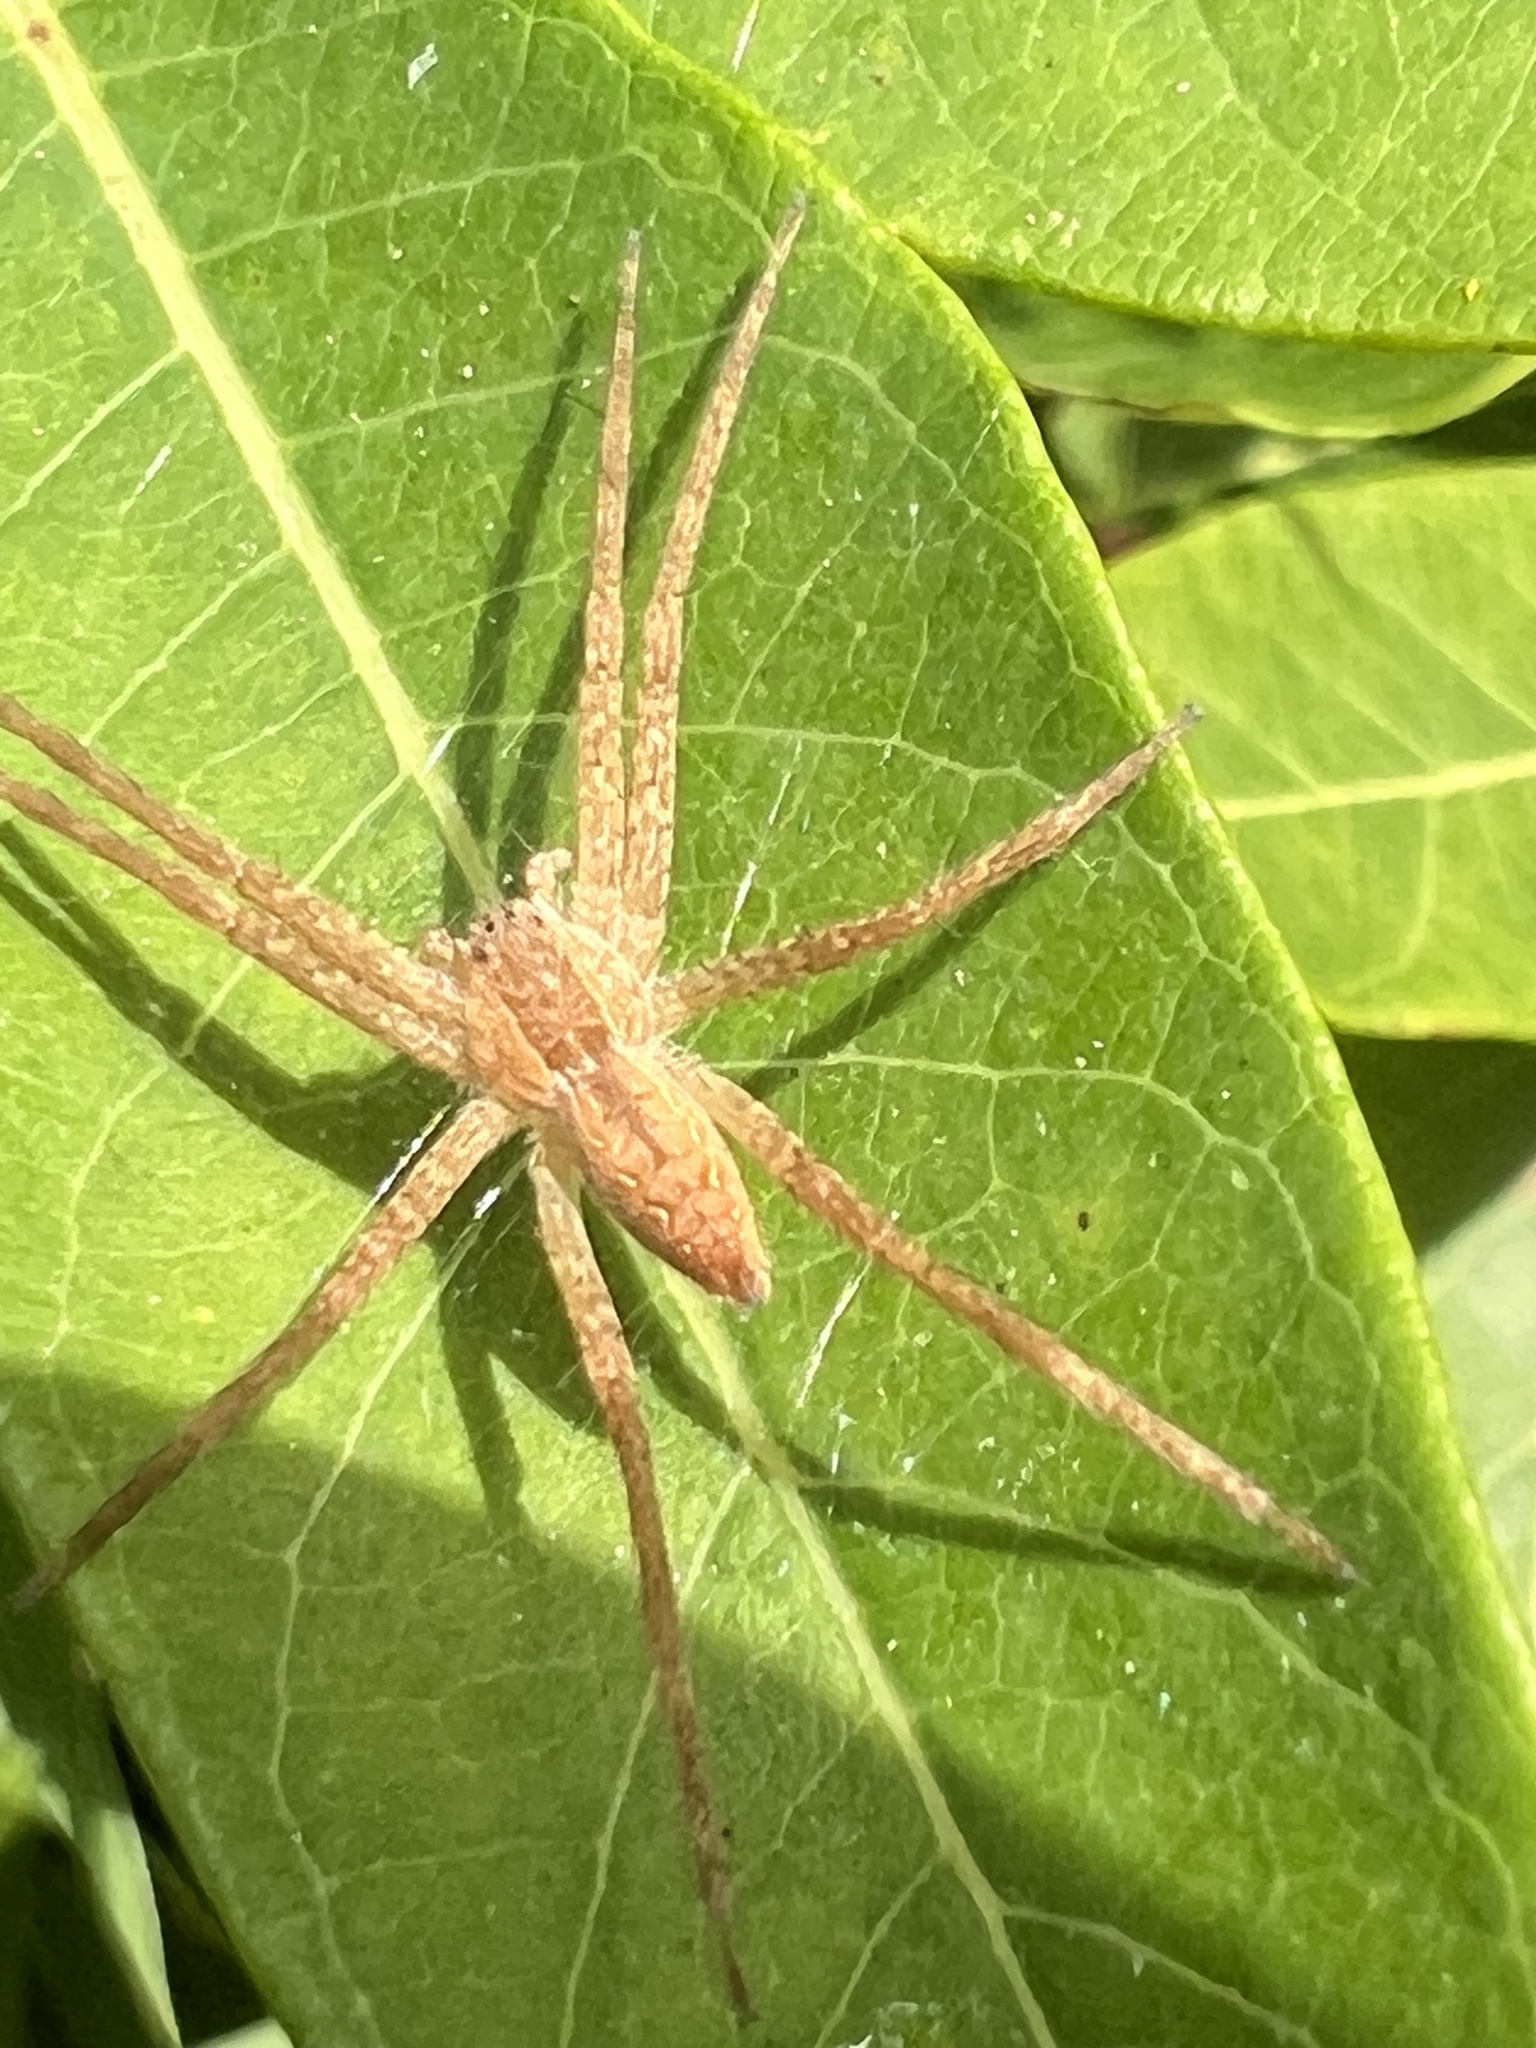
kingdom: Animalia
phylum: Arthropoda
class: Arachnida
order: Araneae
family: Pisauridae
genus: Pisaurina
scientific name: Pisaurina mira
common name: American nursery web spider
